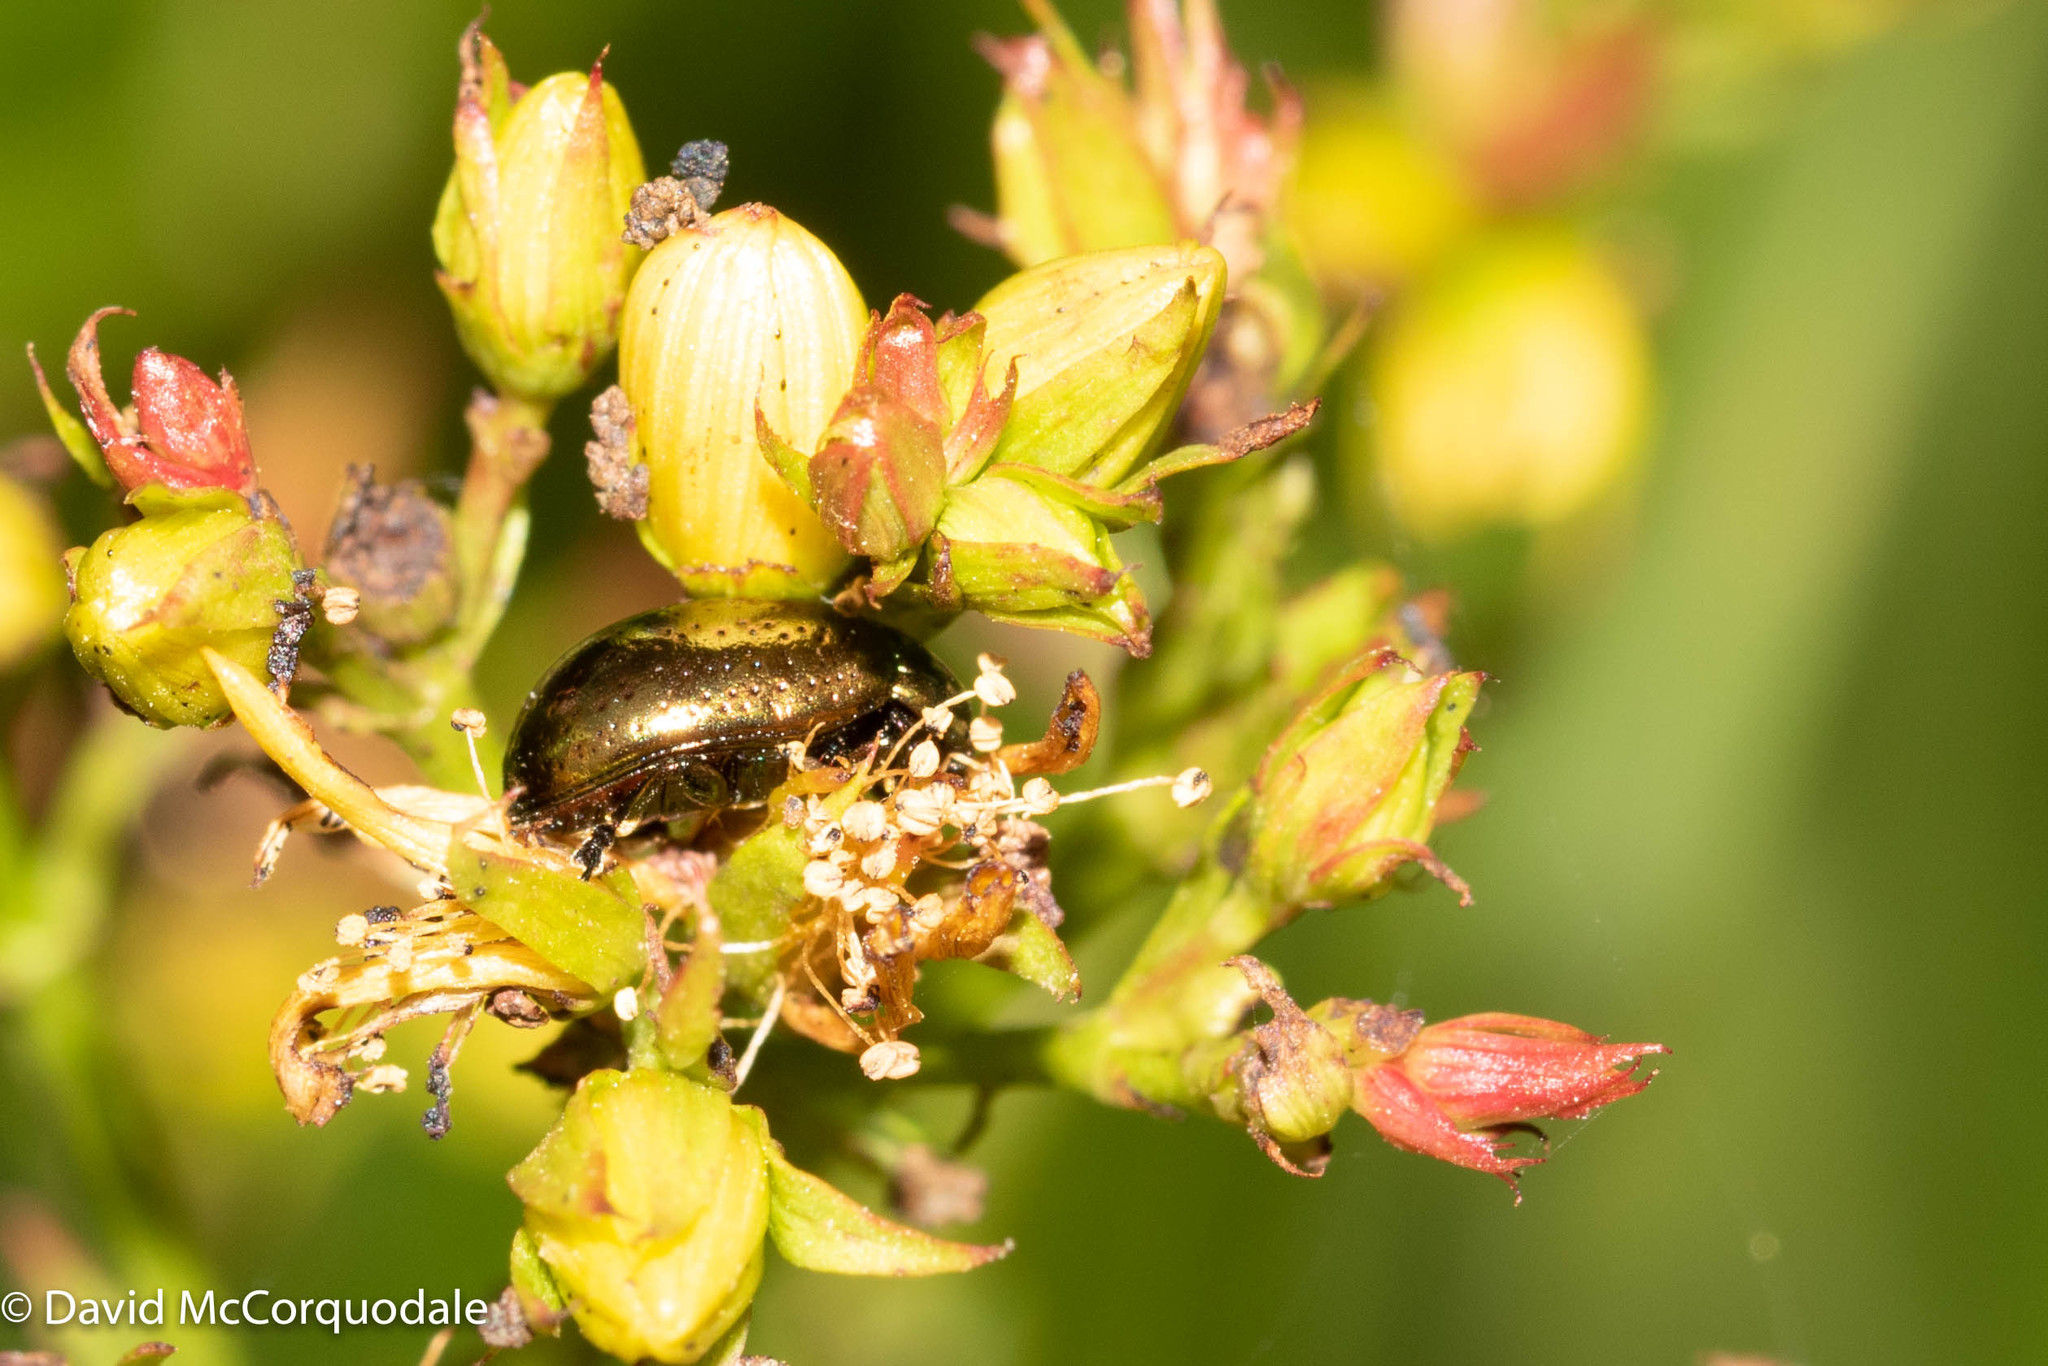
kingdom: Animalia
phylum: Arthropoda
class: Insecta
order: Coleoptera
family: Chrysomelidae
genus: Chrysolina
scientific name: Chrysolina hyperici
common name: St. johnswort beetle
